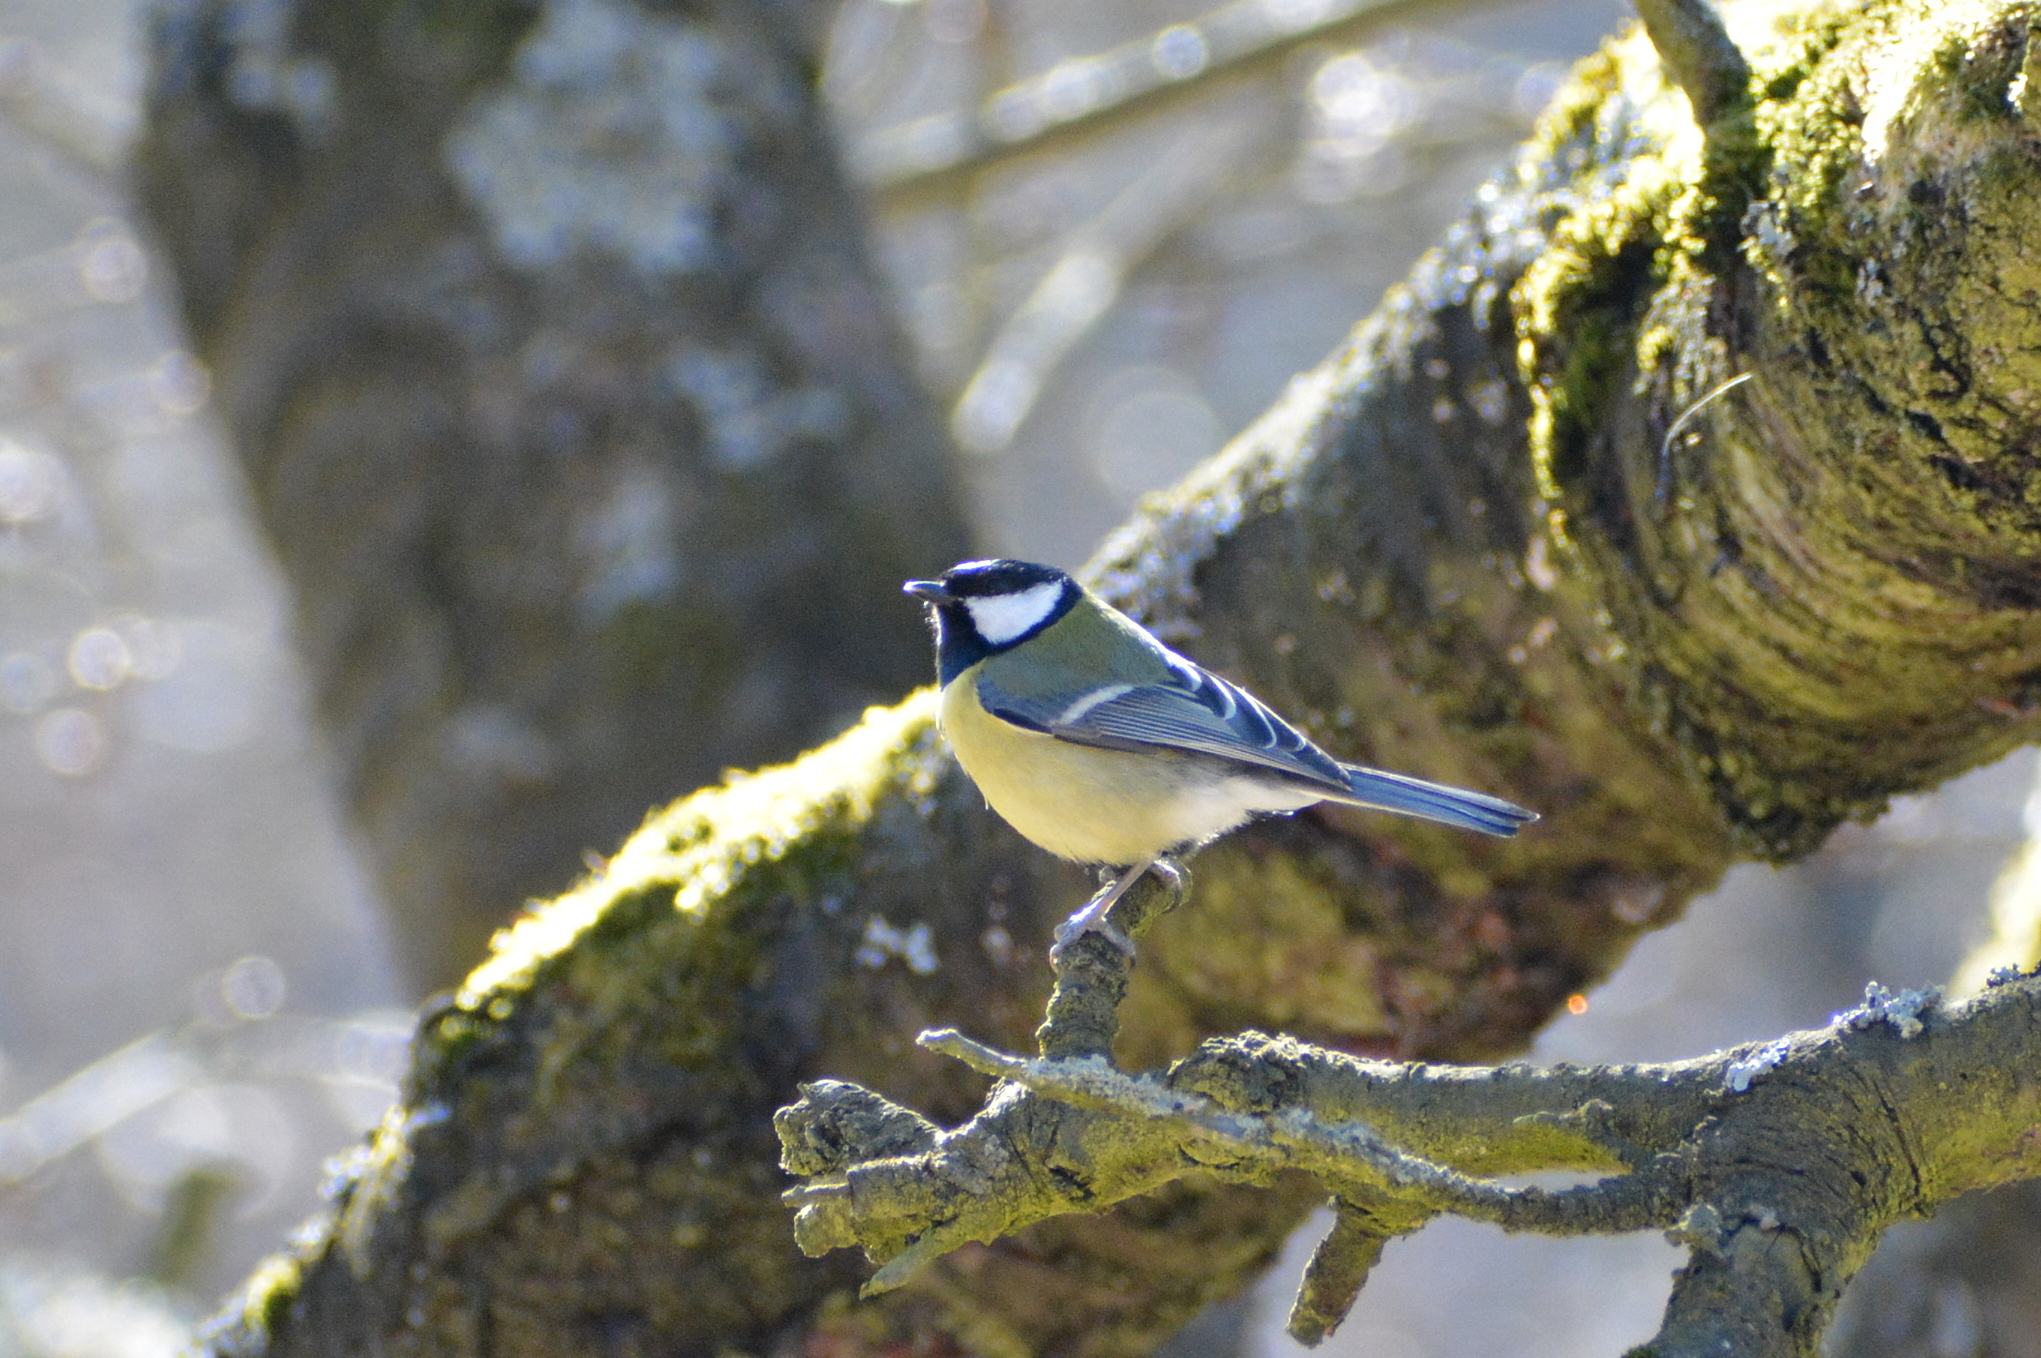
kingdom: Animalia
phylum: Chordata
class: Aves
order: Passeriformes
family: Paridae
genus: Parus
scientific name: Parus major
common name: Great tit
